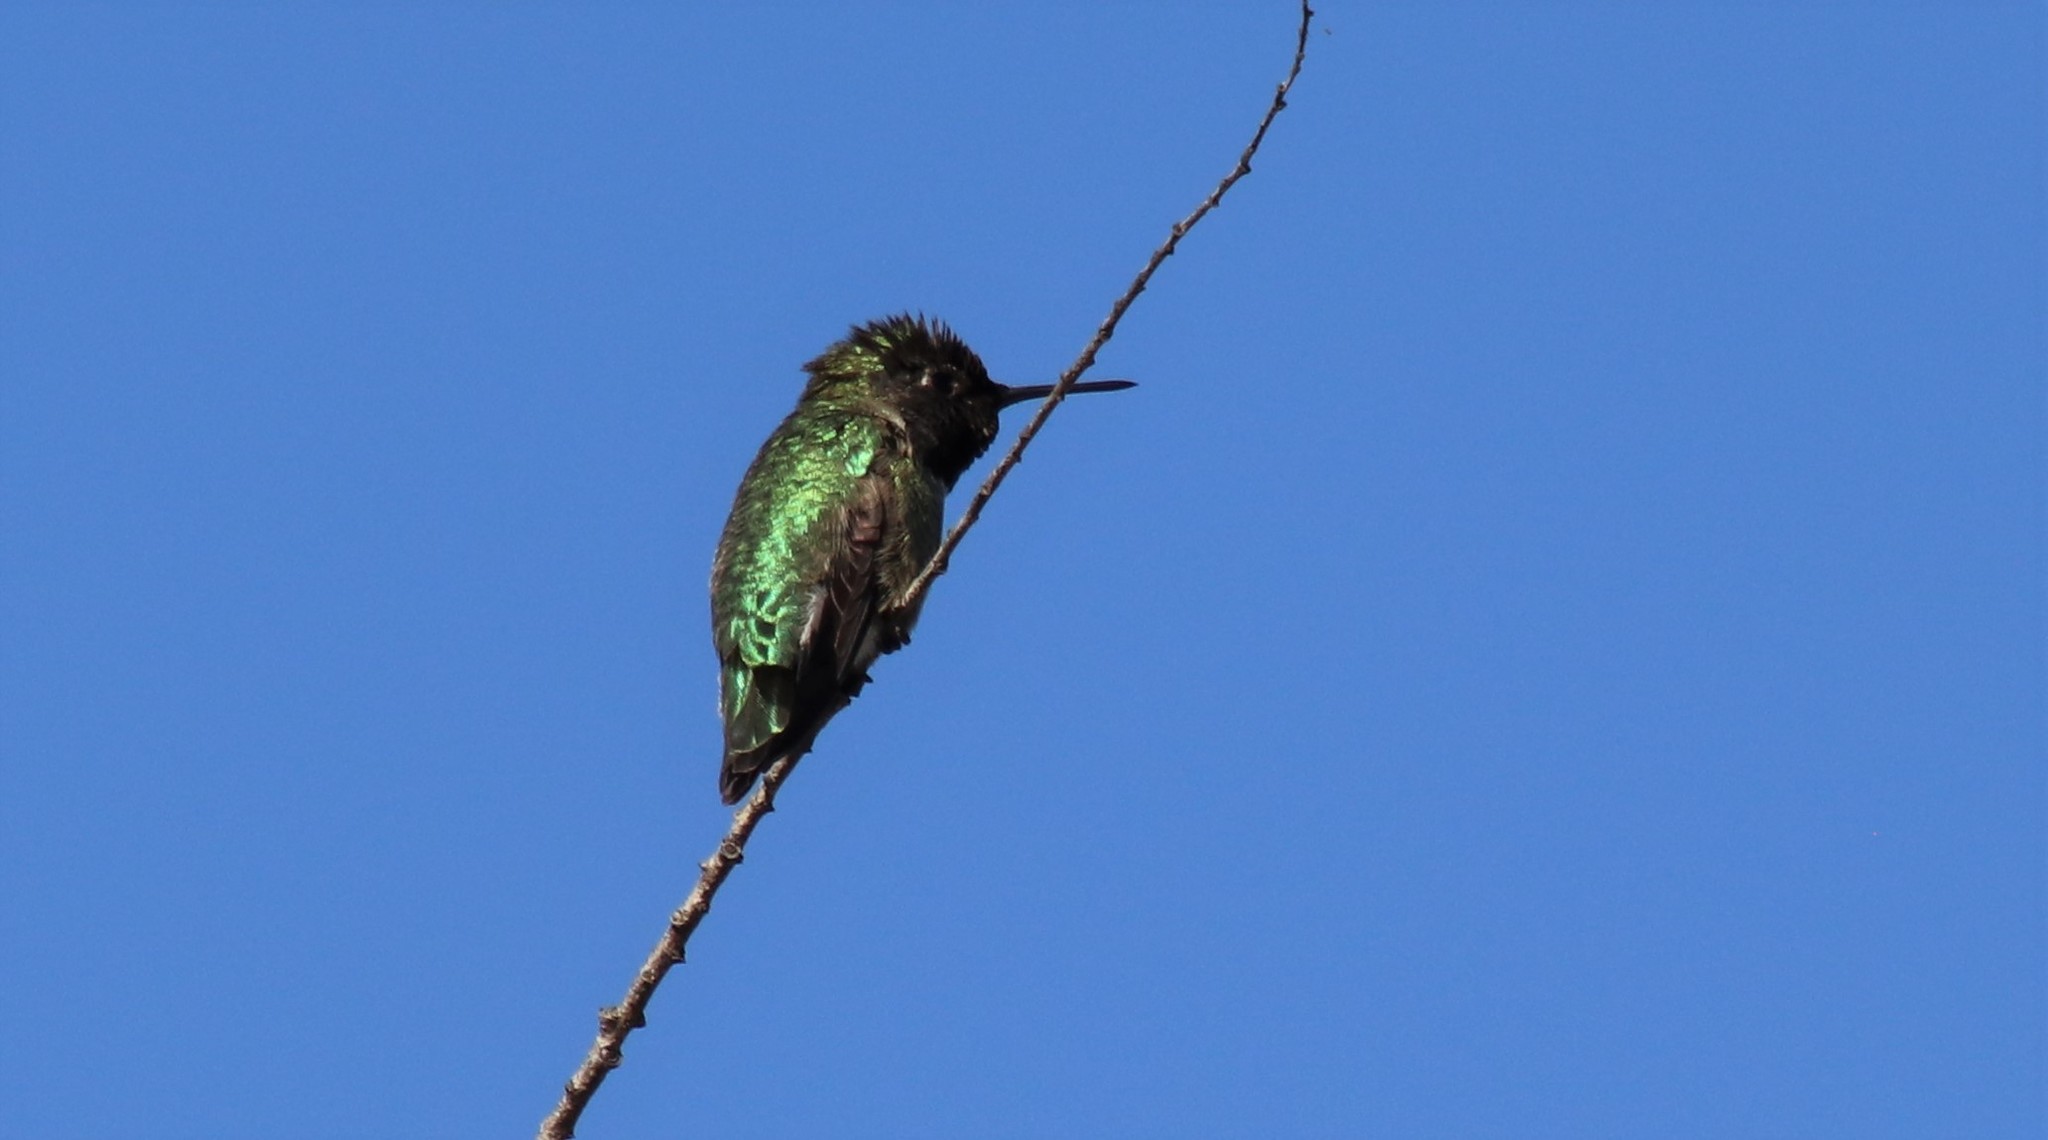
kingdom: Animalia
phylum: Chordata
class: Aves
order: Apodiformes
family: Trochilidae
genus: Calypte
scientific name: Calypte anna
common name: Anna's hummingbird
